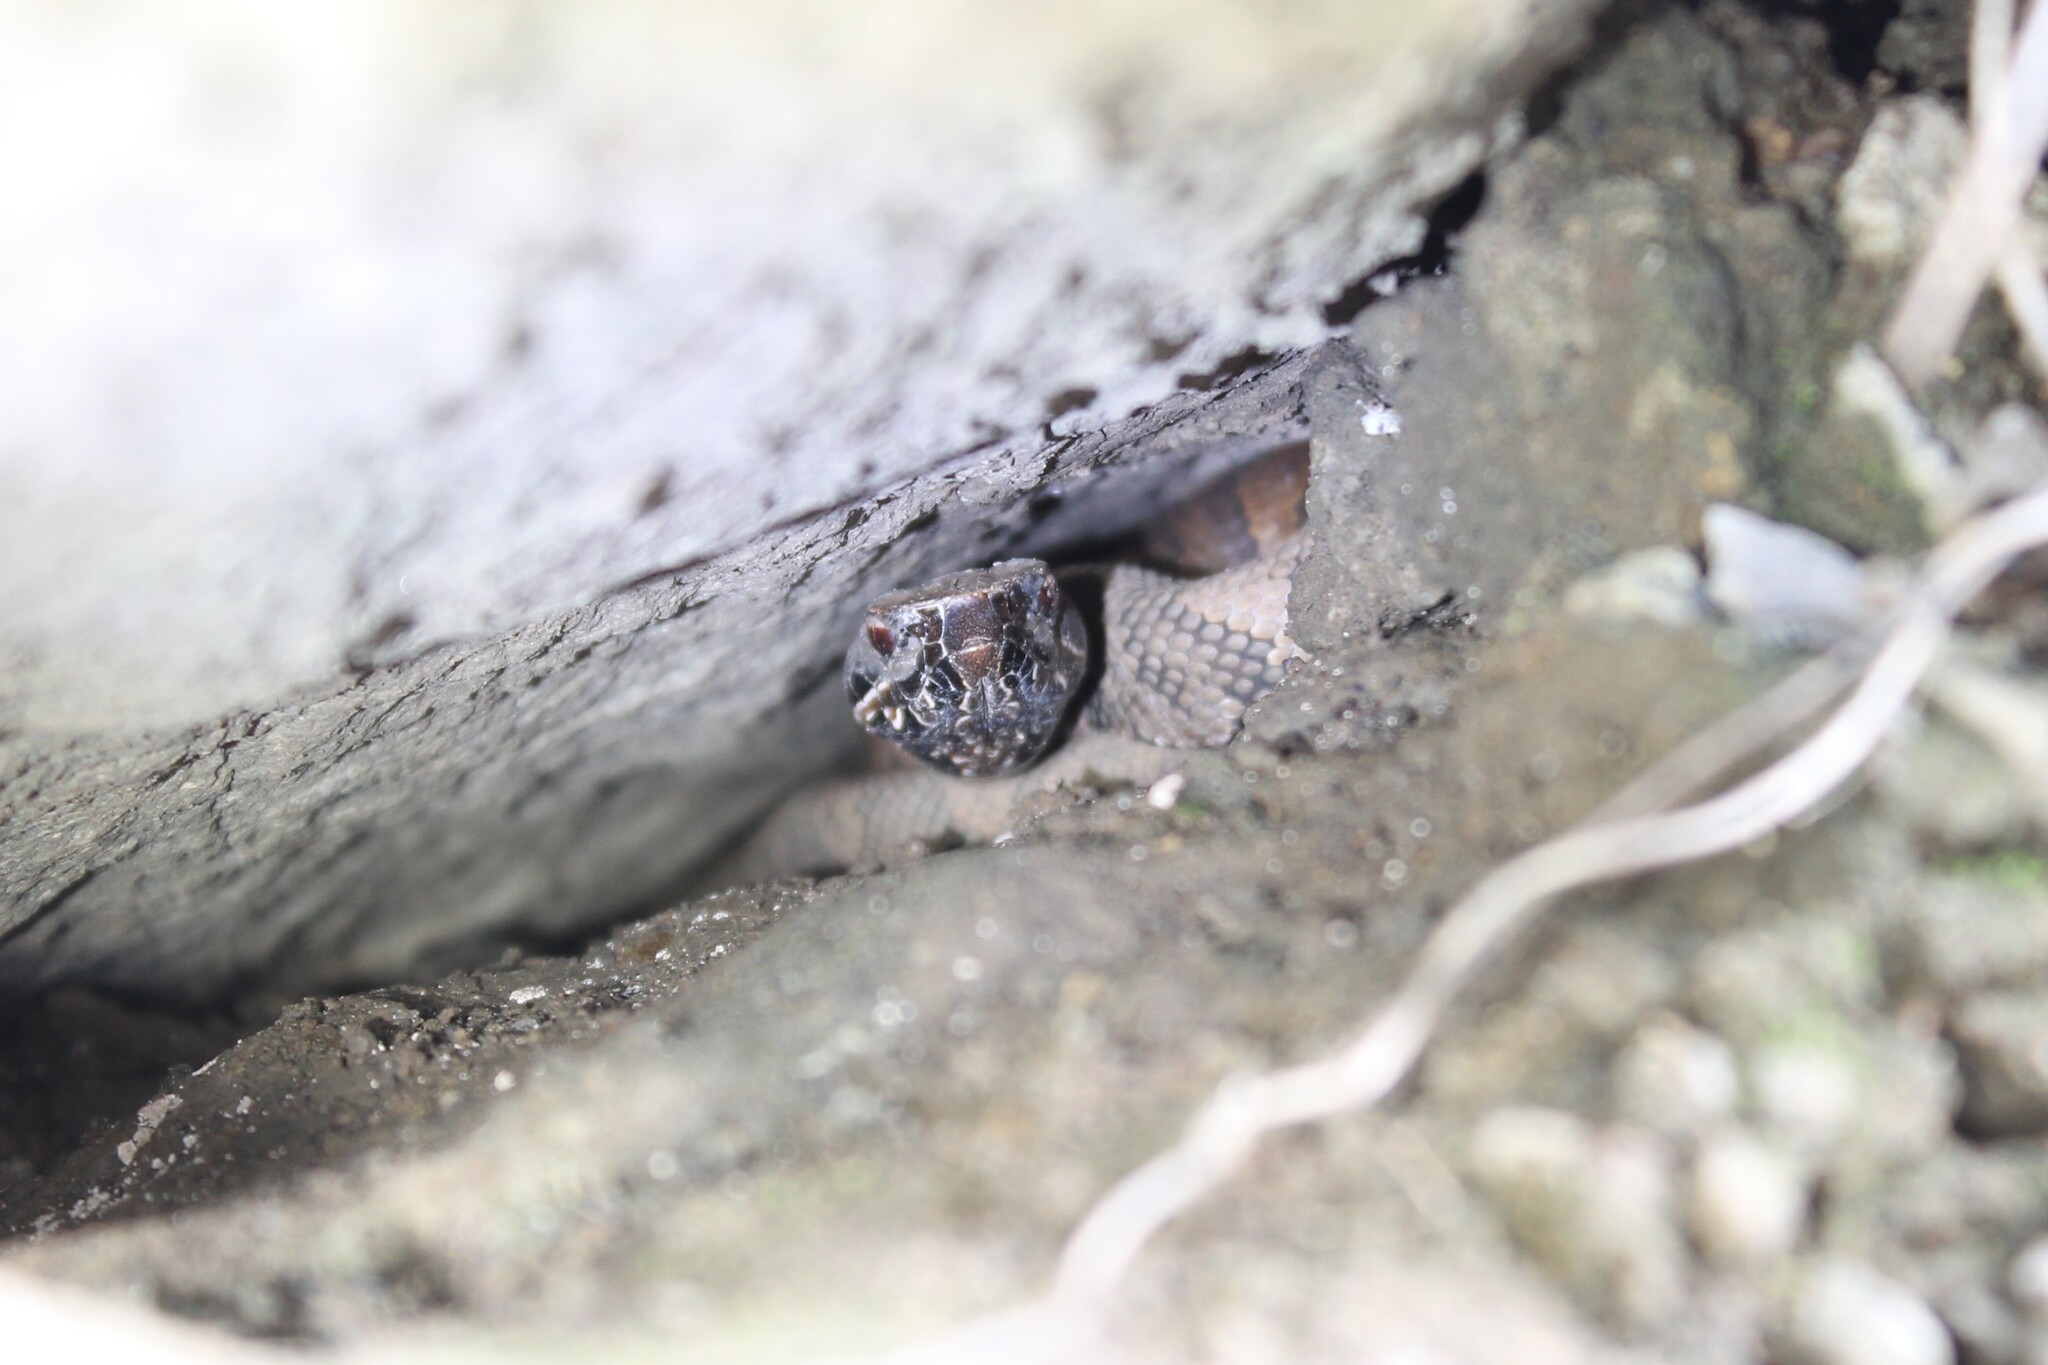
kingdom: Animalia
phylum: Chordata
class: Squamata
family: Viperidae
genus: Agkistrodon
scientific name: Agkistrodon piscivorus
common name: Cottonmouth
